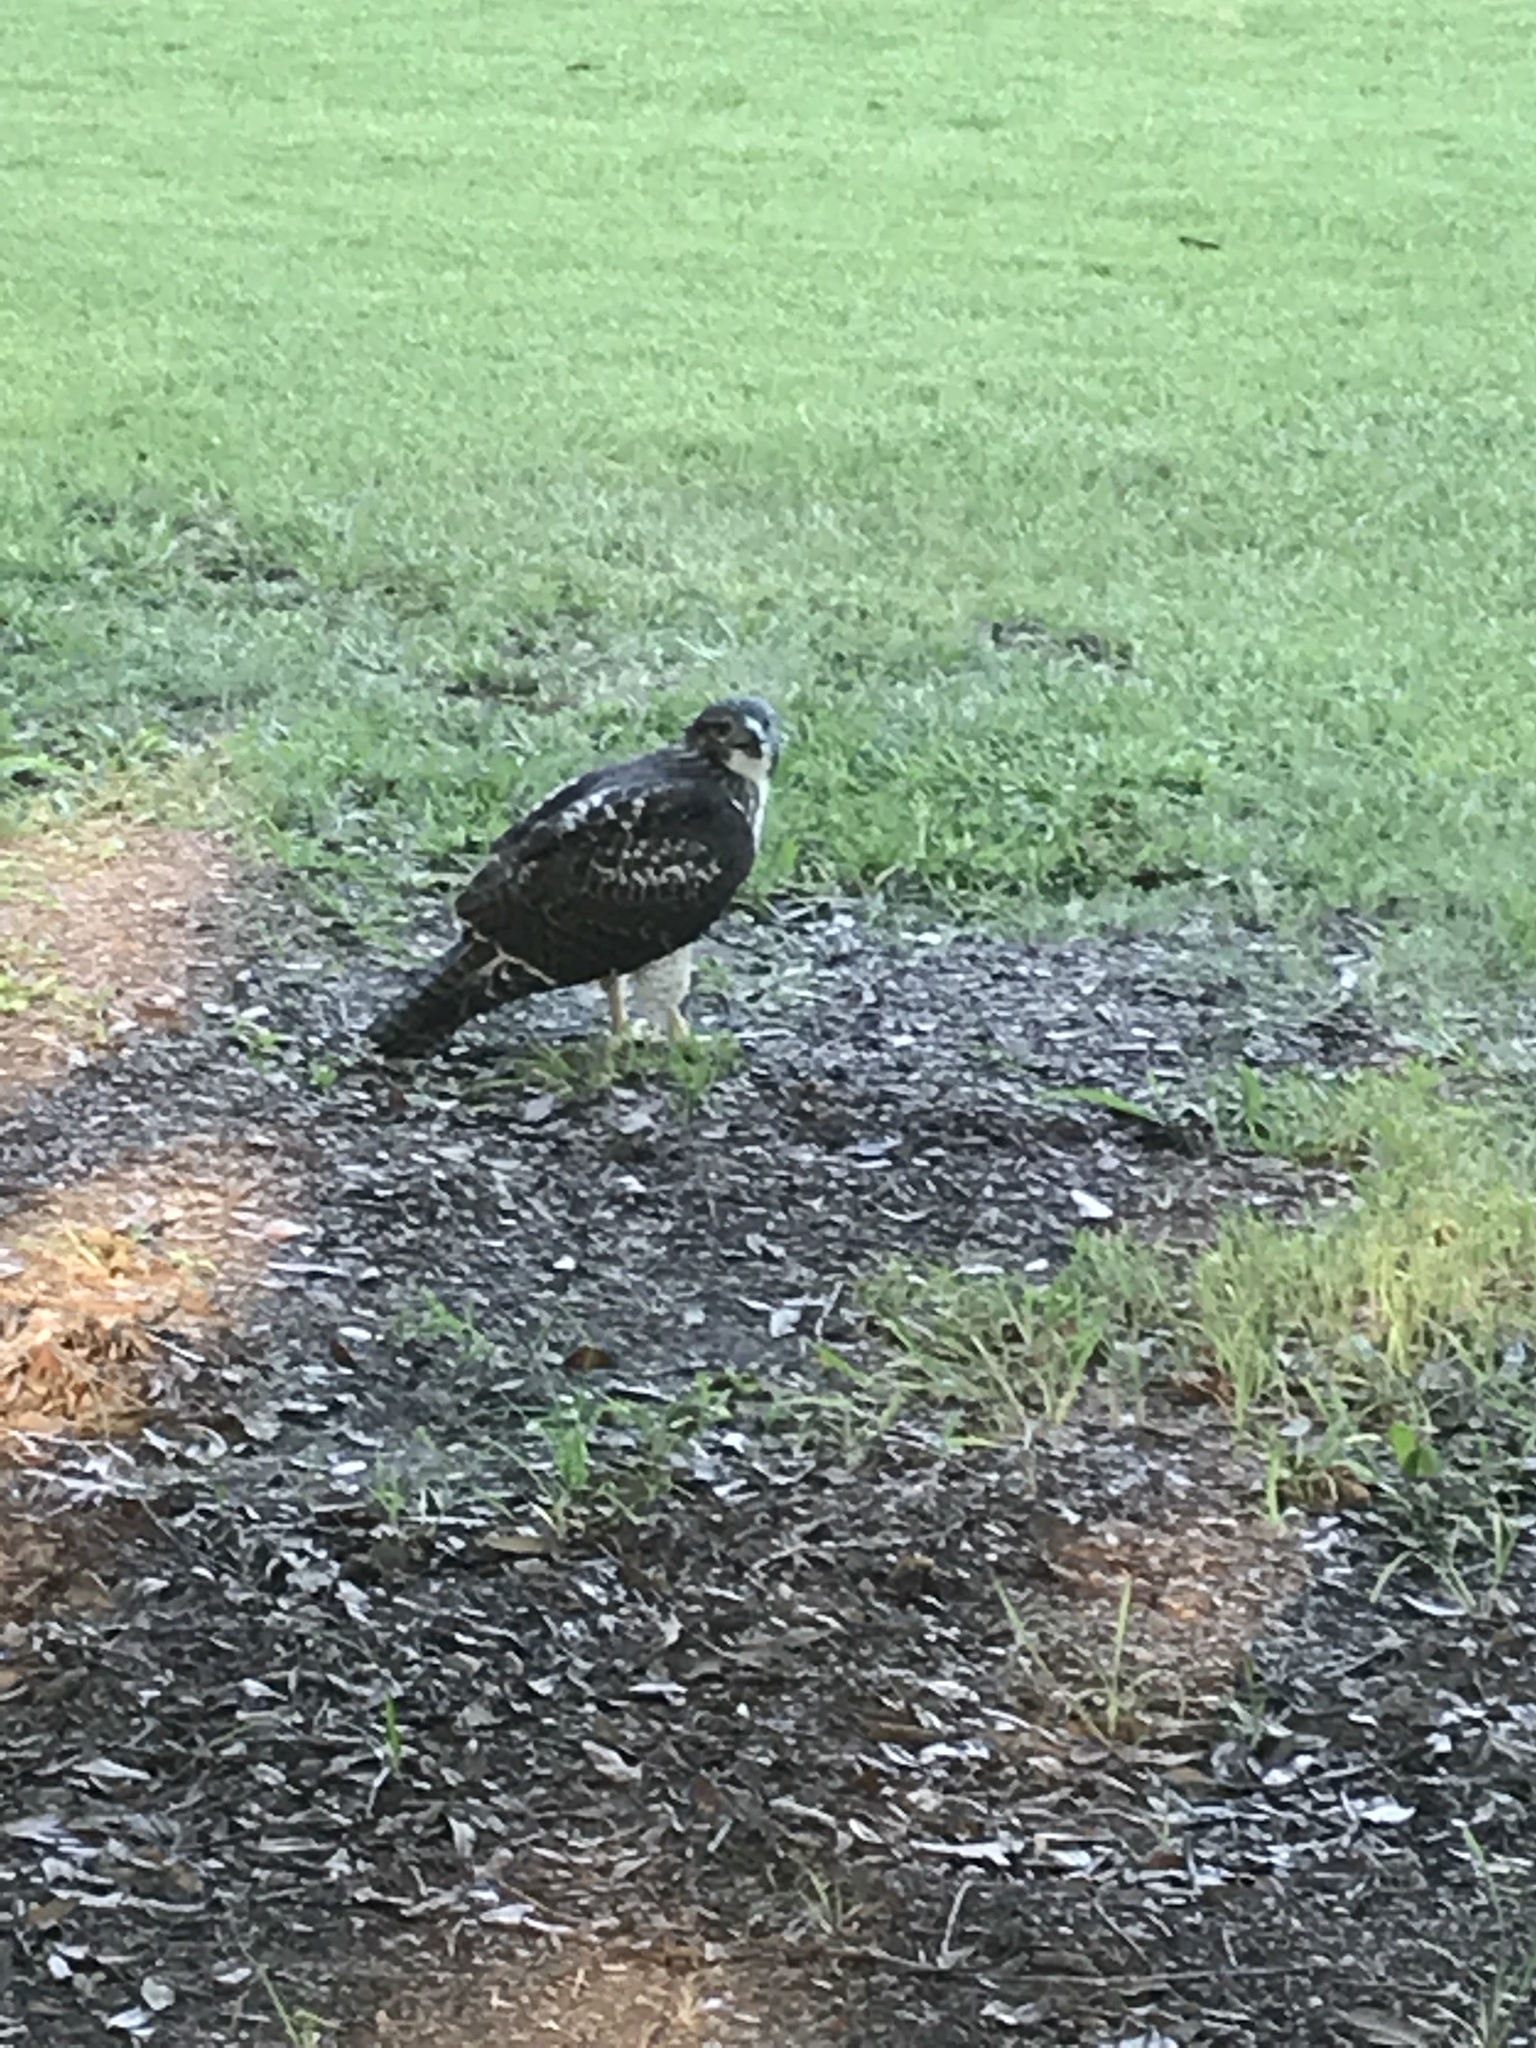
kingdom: Animalia
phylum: Chordata
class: Aves
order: Accipitriformes
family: Accipitridae
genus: Buteo
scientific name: Buteo jamaicensis
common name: Red-tailed hawk
